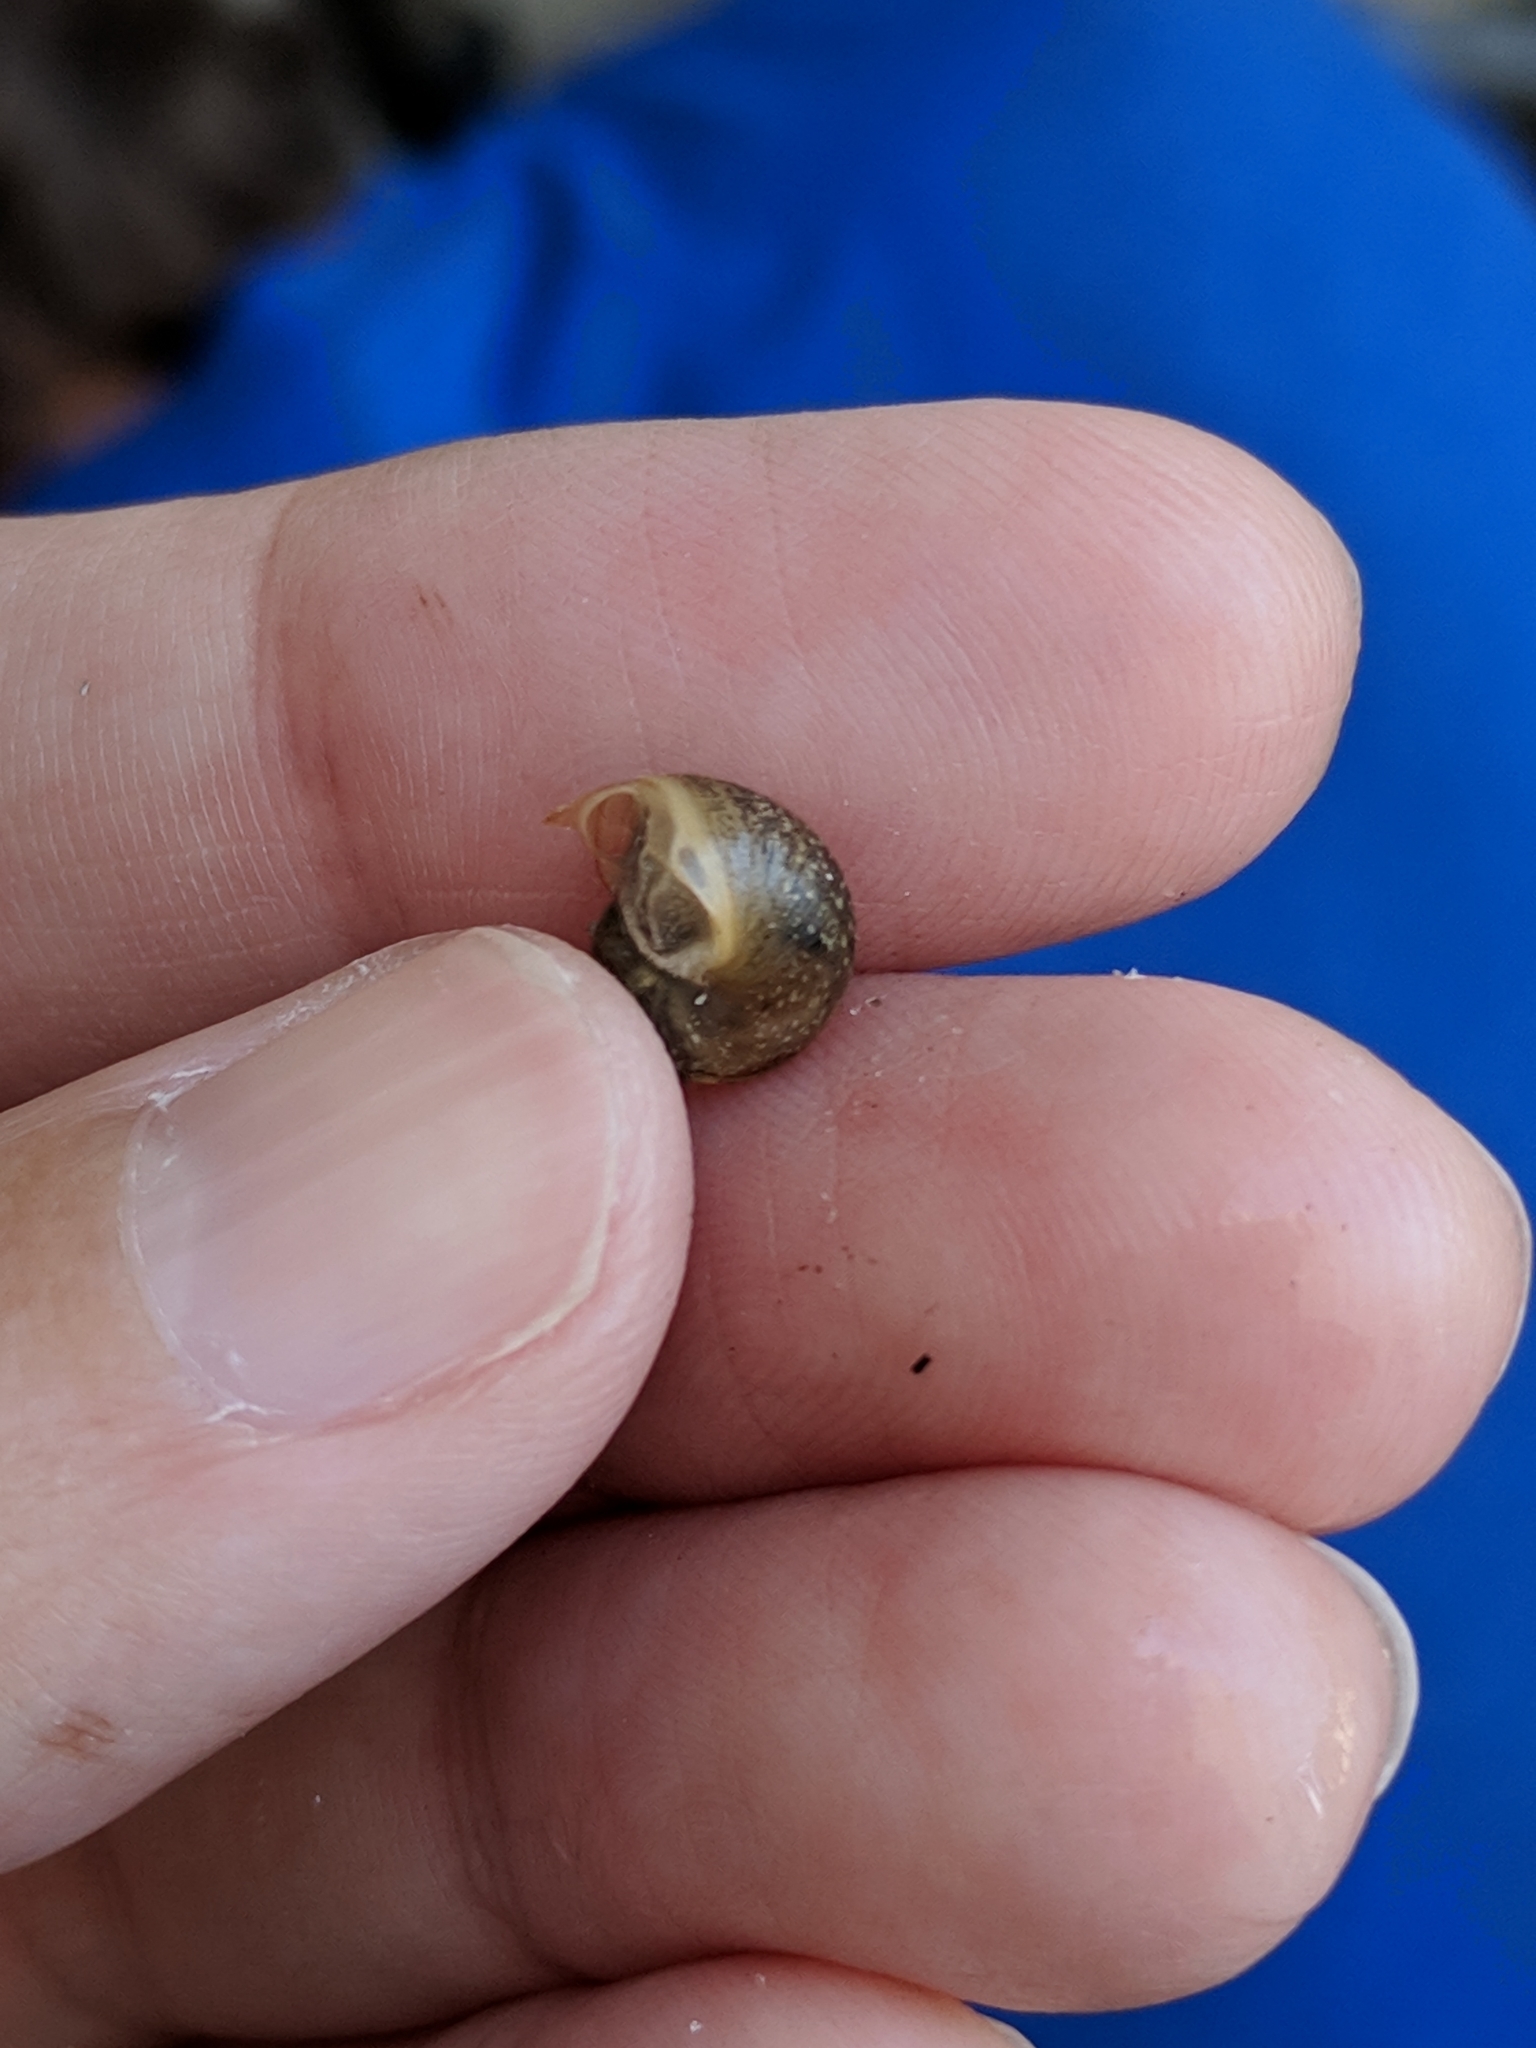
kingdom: Animalia
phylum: Mollusca
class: Gastropoda
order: Stylommatophora
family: Zachrysiidae
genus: Zachrysia
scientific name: Zachrysia provisoria
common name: Garden zachrysia
